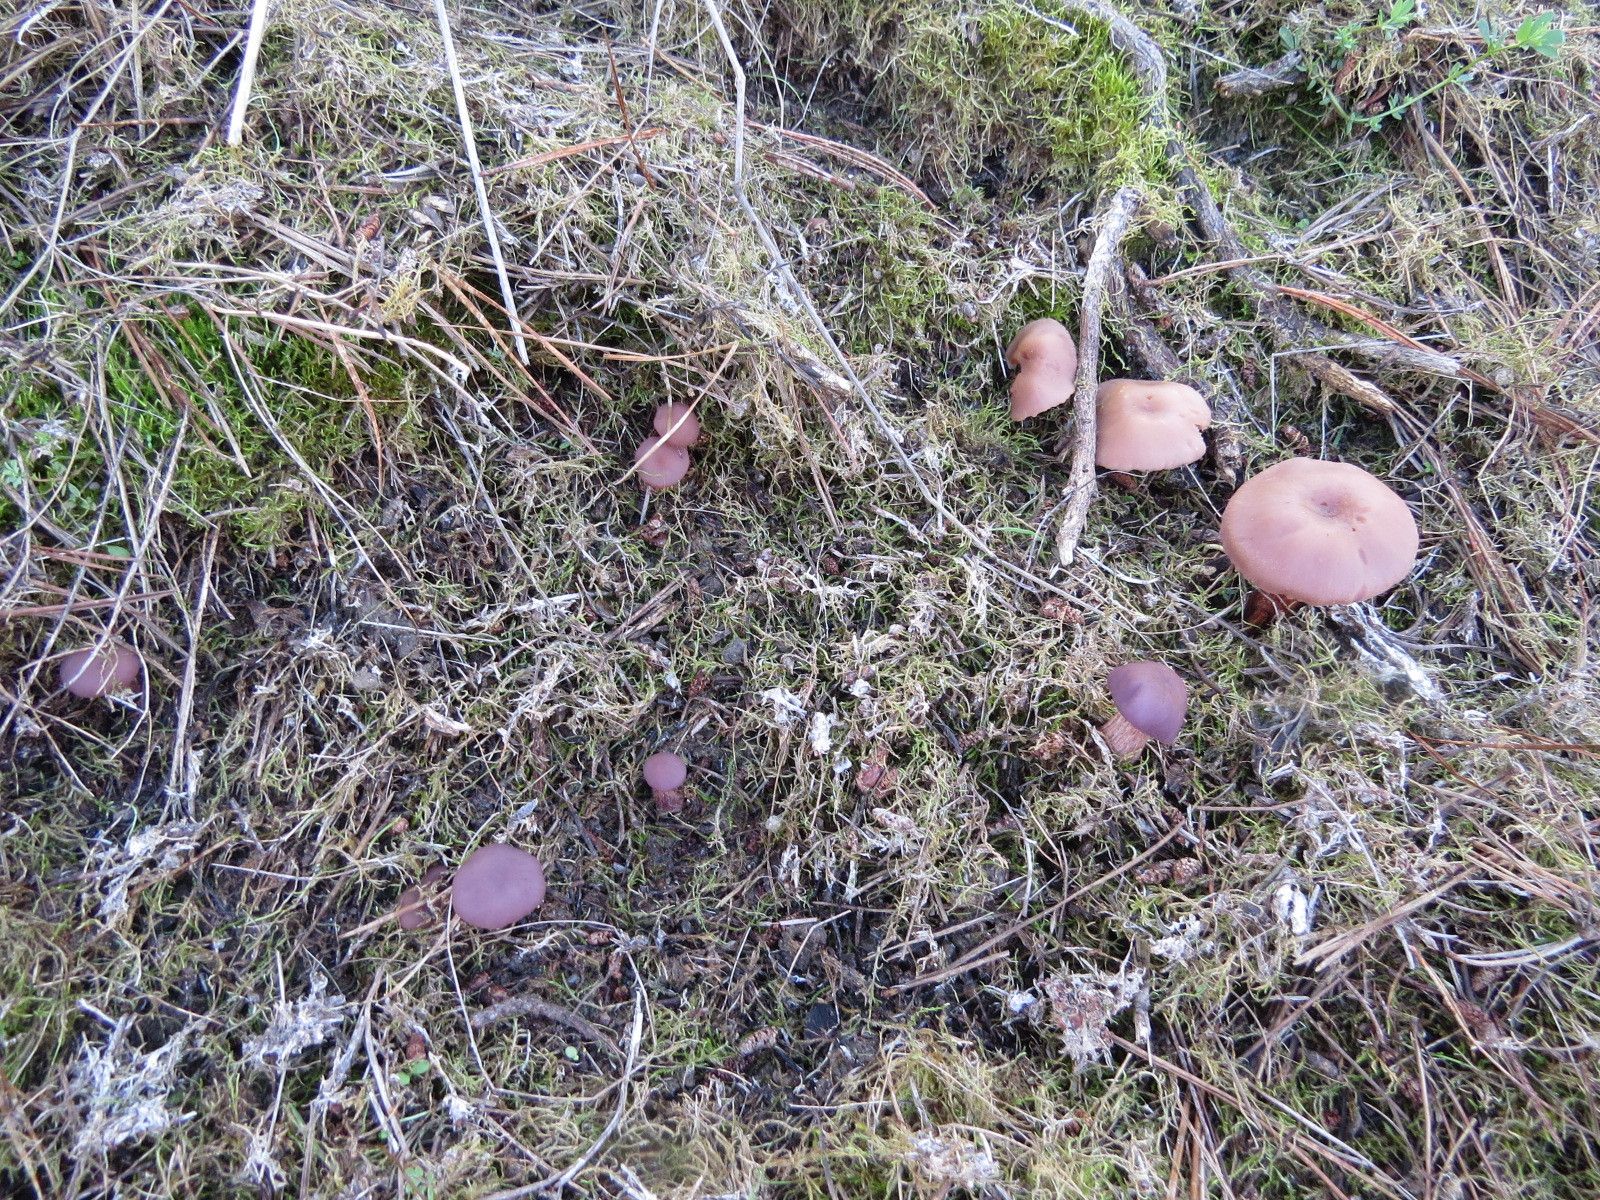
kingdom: Fungi
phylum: Basidiomycota
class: Agaricomycetes
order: Agaricales
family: Hydnangiaceae
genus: Laccaria
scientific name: Laccaria amethysteo-occidentalis
